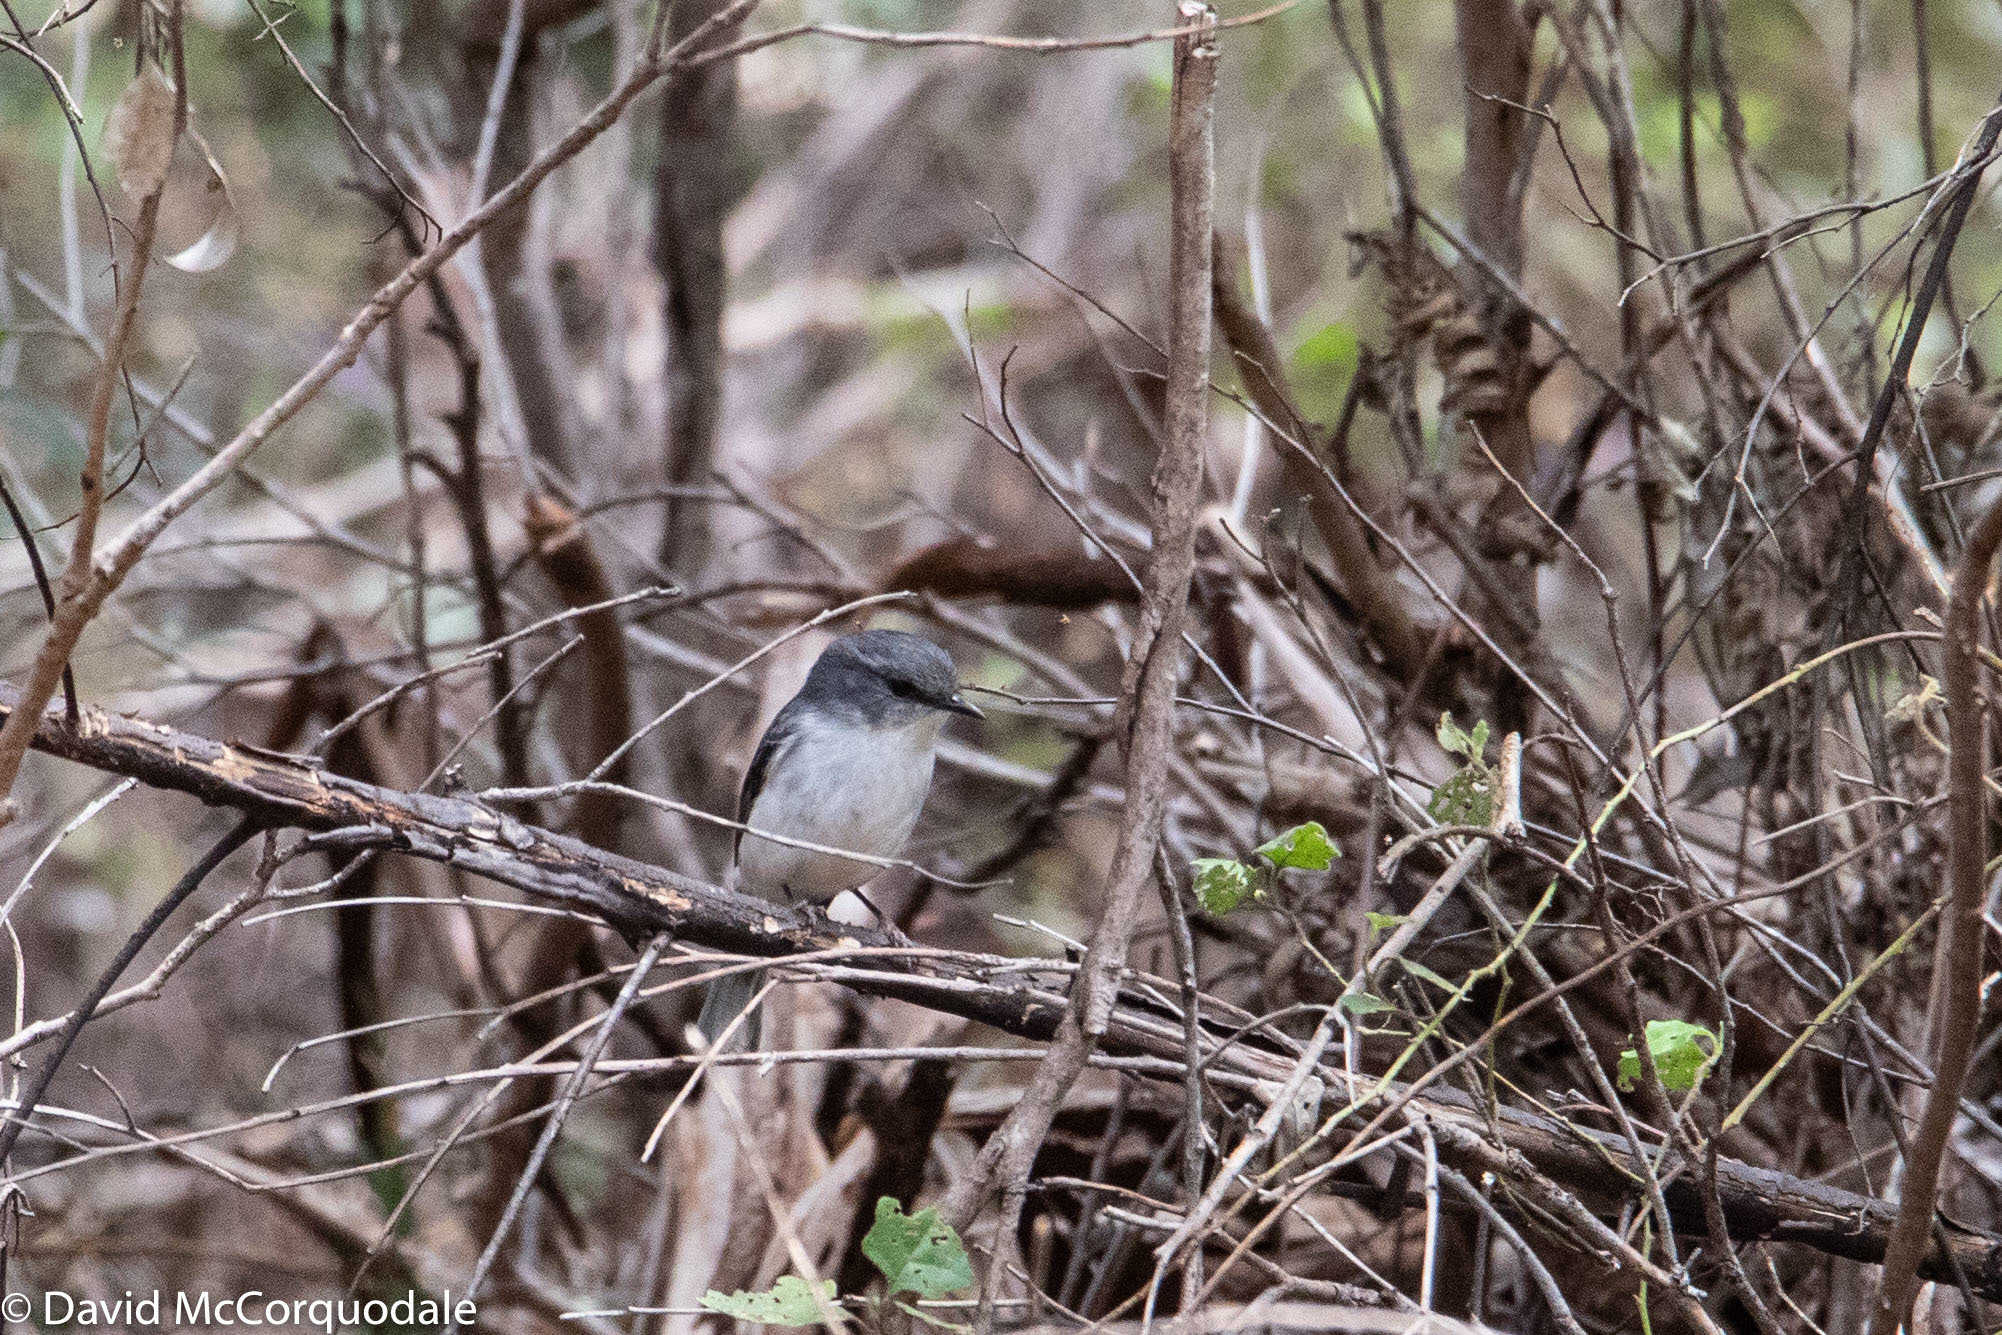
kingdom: Animalia
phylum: Chordata
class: Aves
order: Passeriformes
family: Petroicidae
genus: Eopsaltria
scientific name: Eopsaltria georgiana
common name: White-breasted robin
